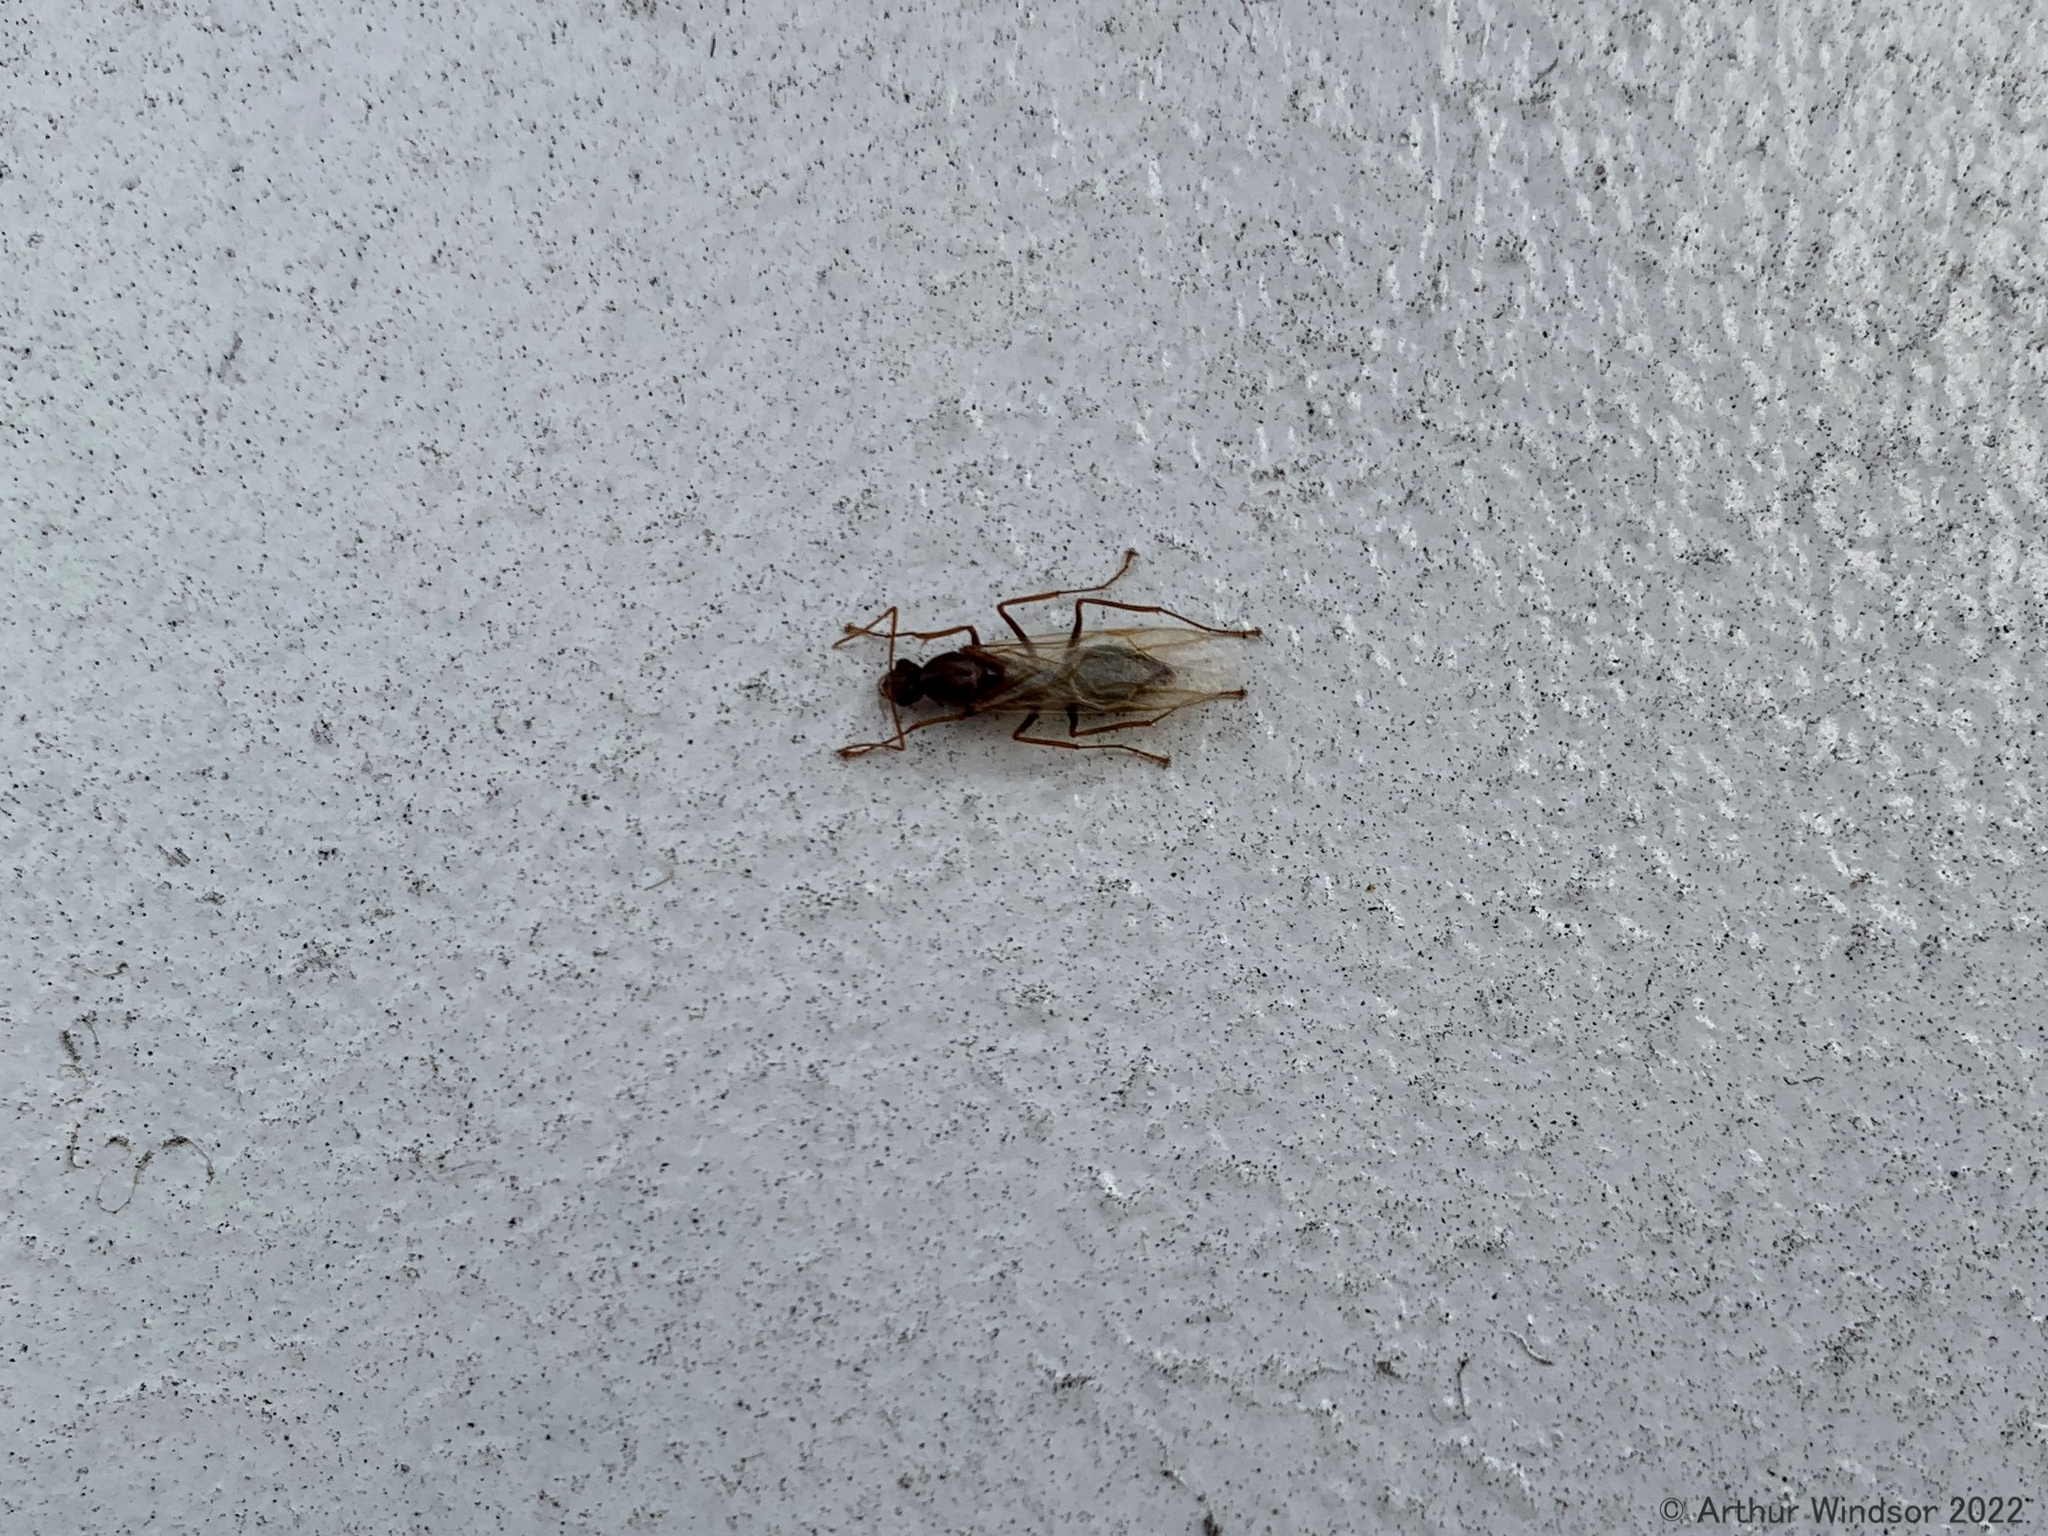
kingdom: Animalia
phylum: Arthropoda
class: Insecta
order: Hymenoptera
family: Formicidae
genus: Camponotus
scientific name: Camponotus floridanus
